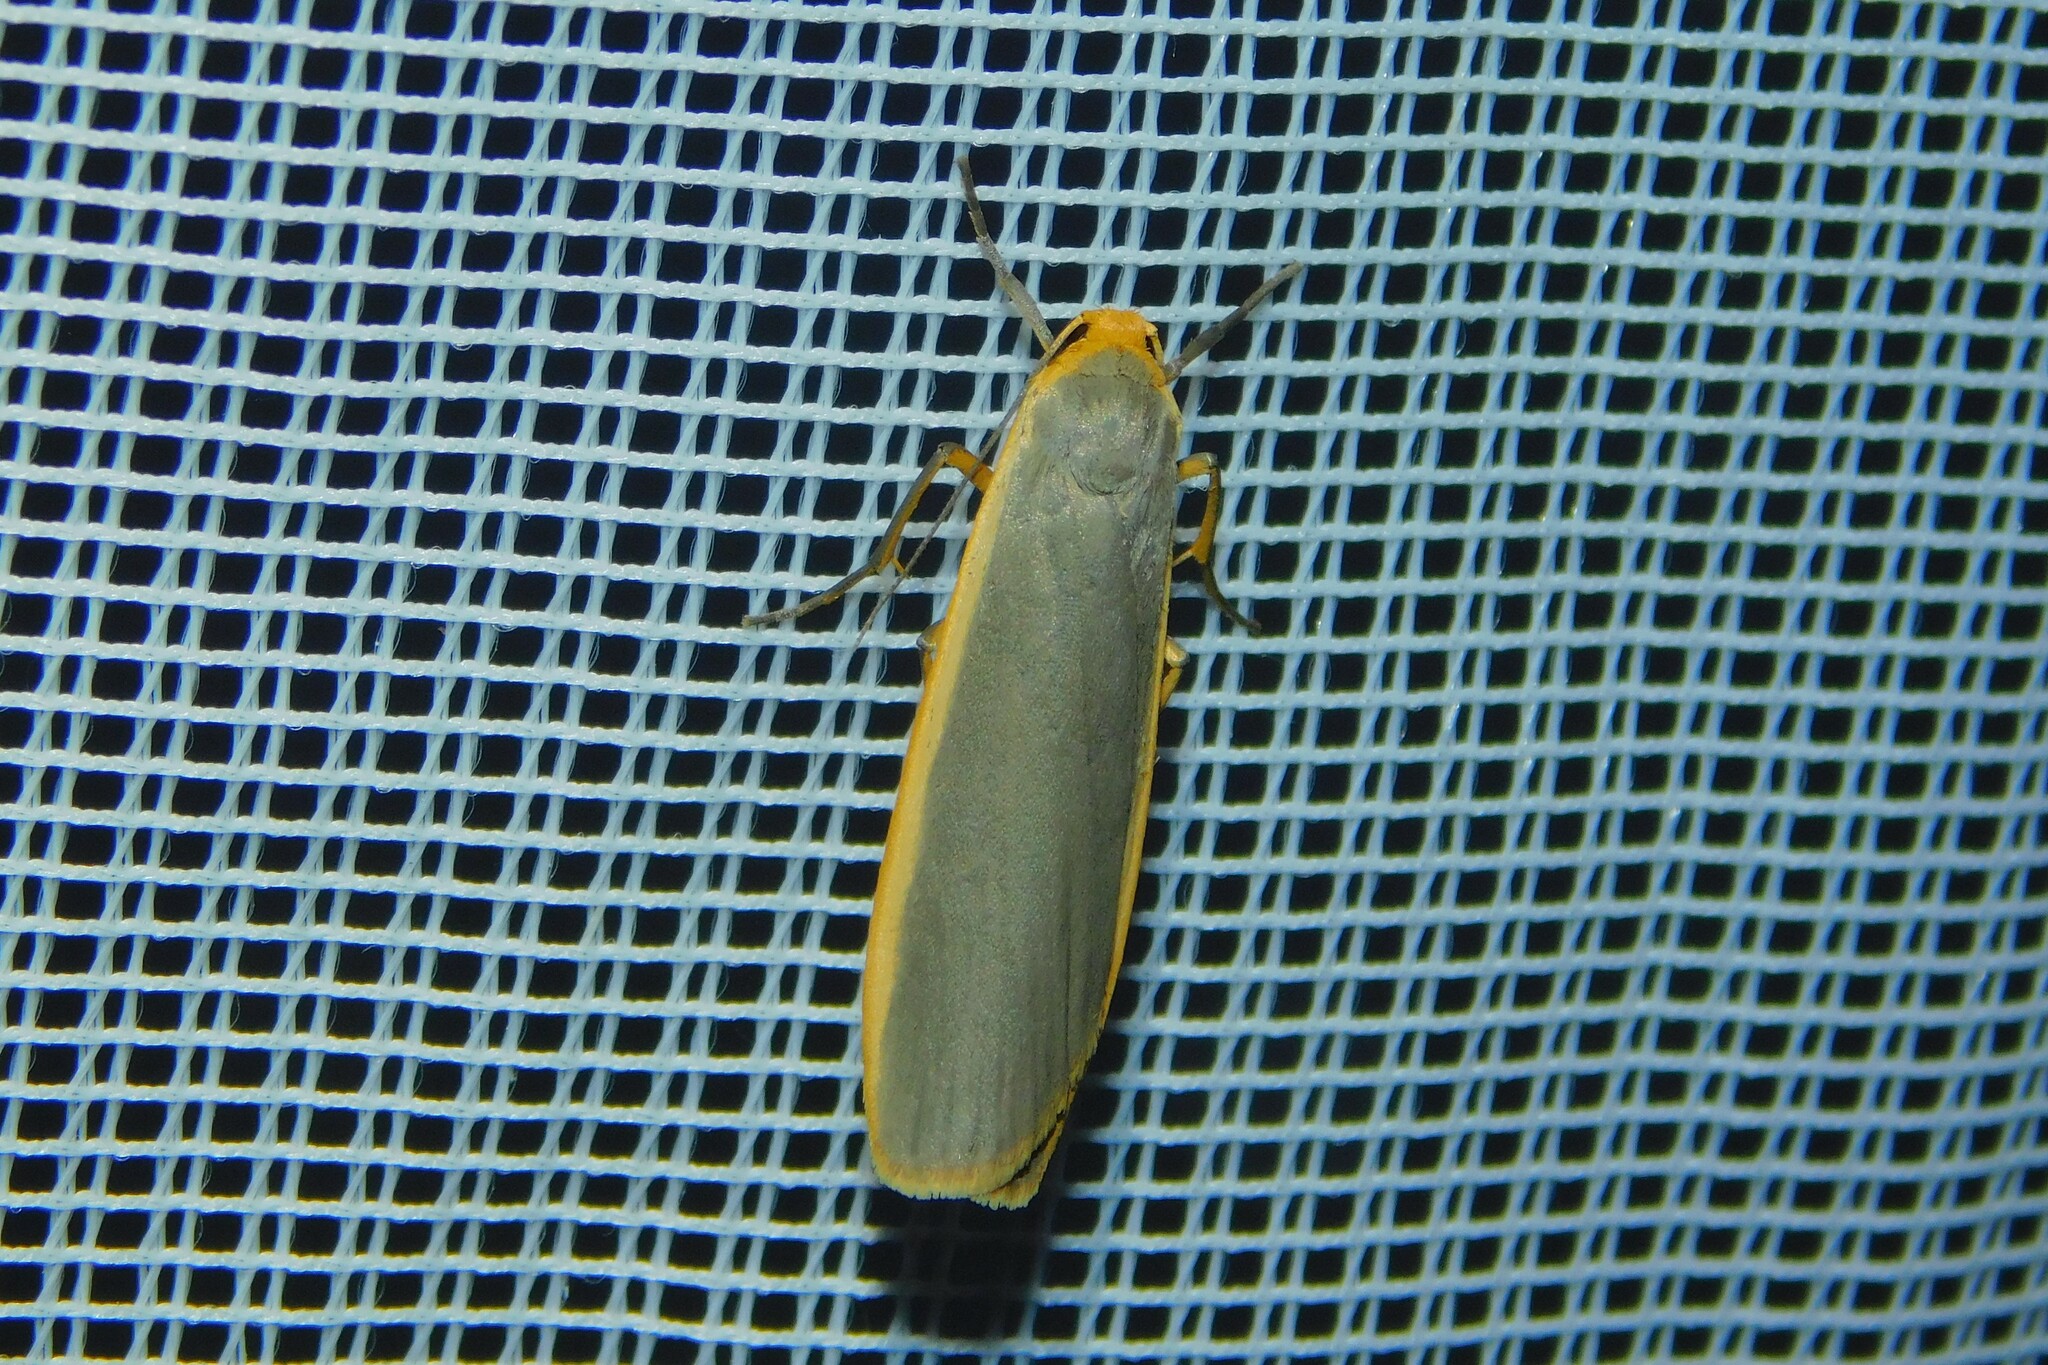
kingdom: Animalia
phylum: Arthropoda
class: Insecta
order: Lepidoptera
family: Erebidae
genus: Nyea
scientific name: Nyea lurideola
